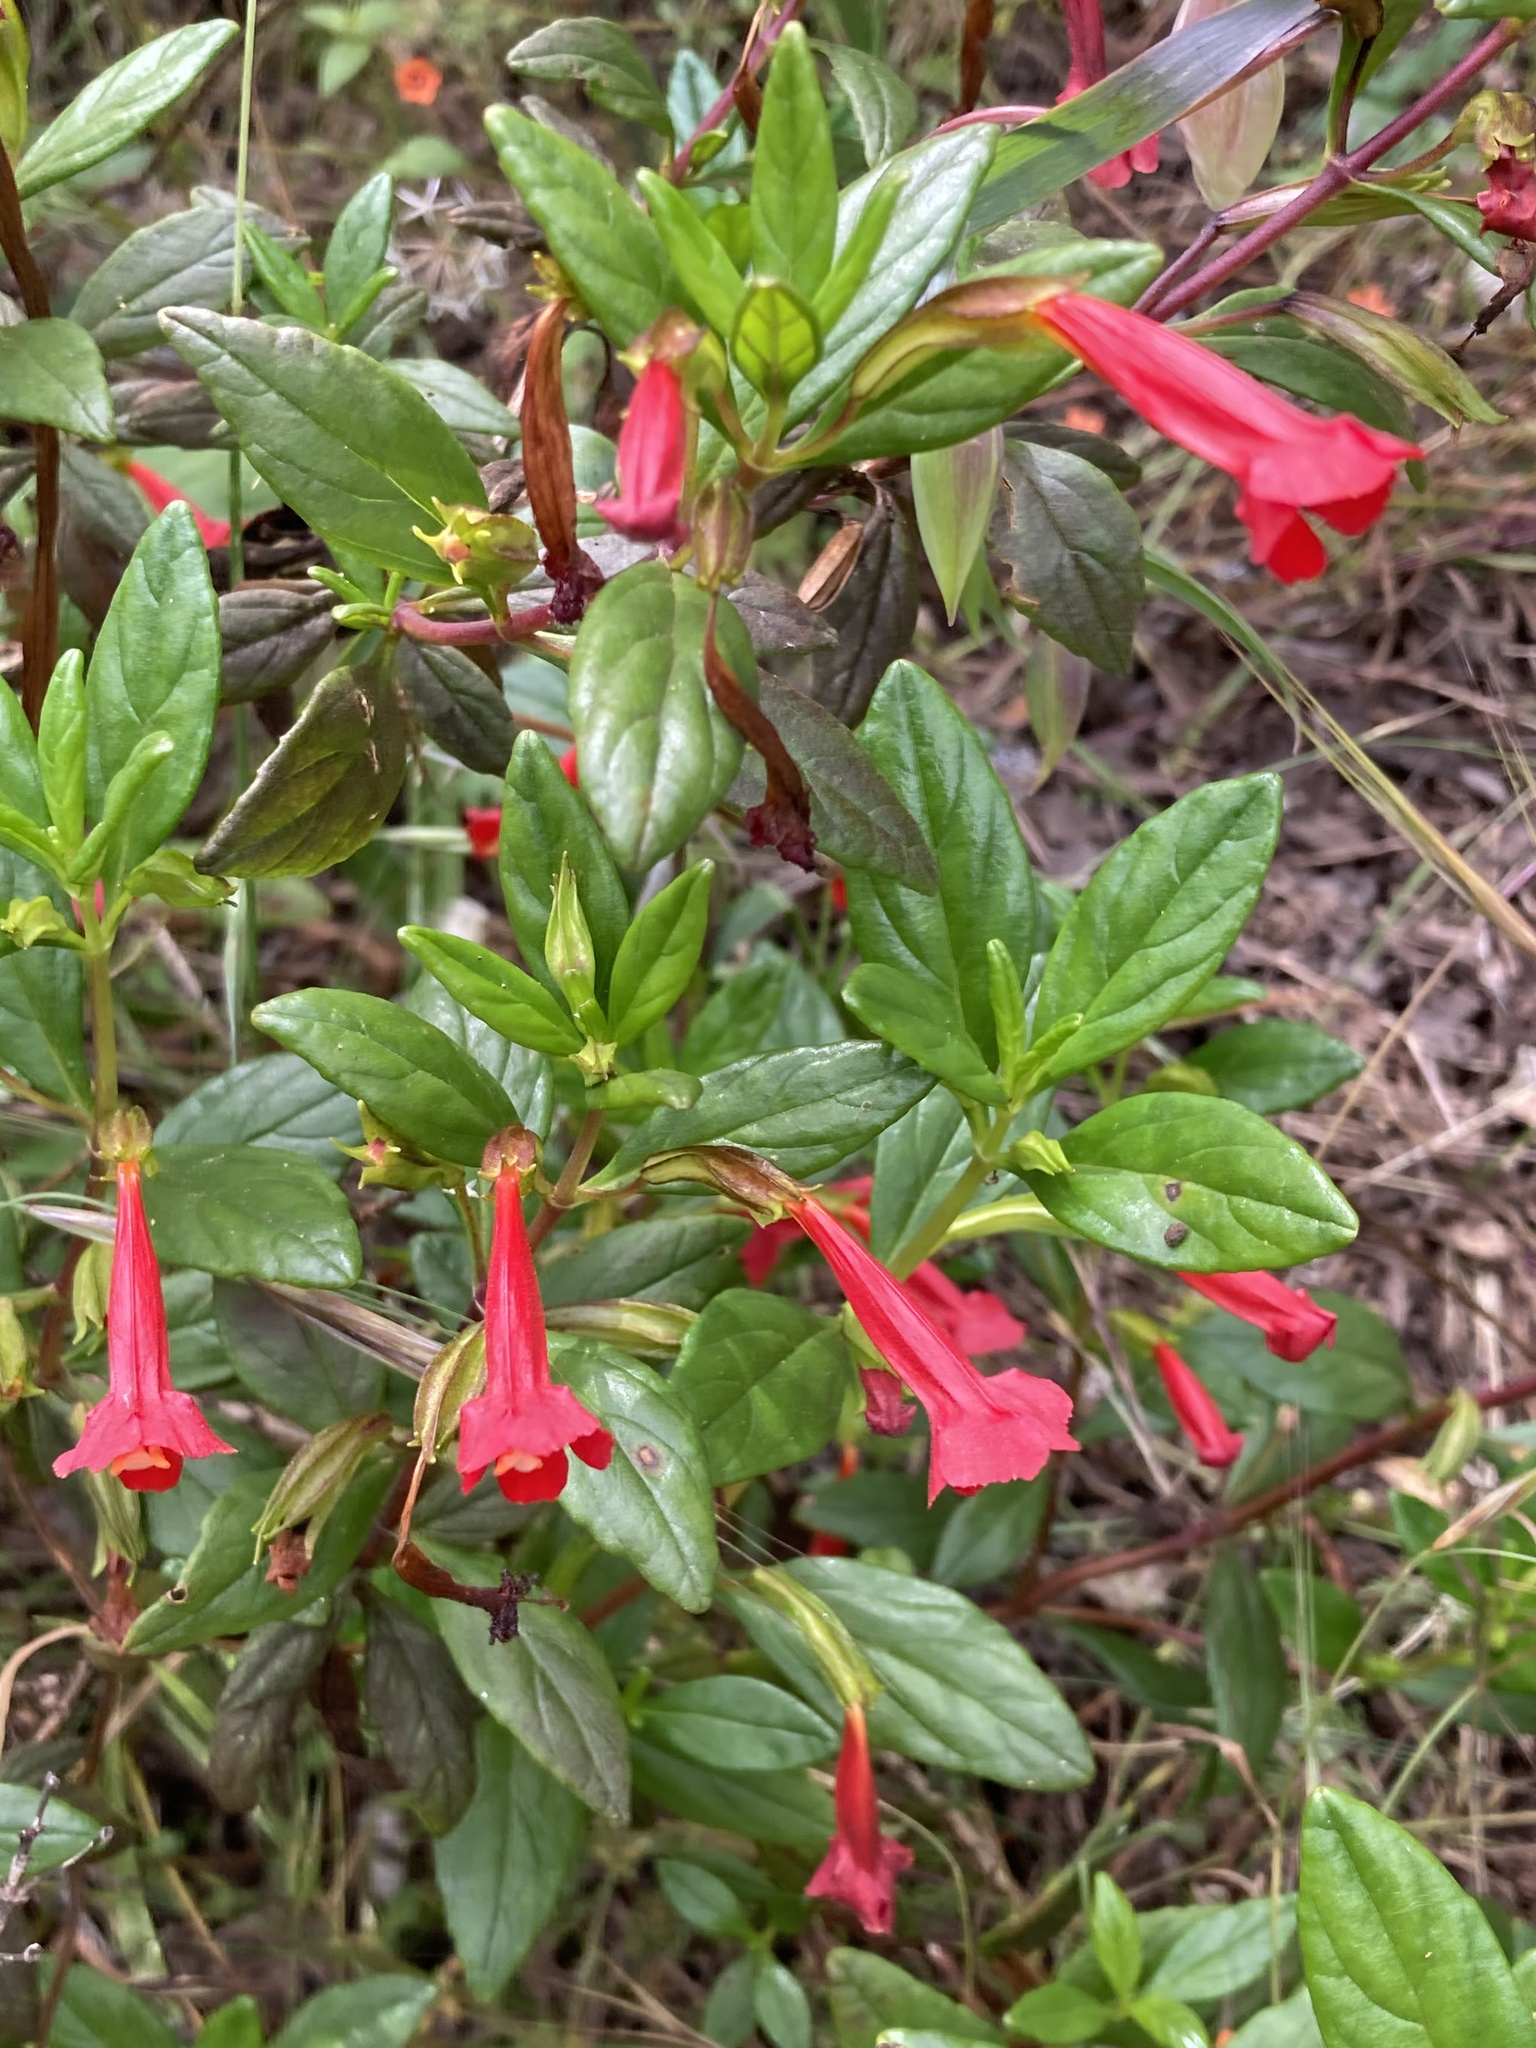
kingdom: Plantae
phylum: Tracheophyta
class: Magnoliopsida
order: Lamiales
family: Phrymaceae
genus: Diplacus
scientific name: Diplacus parviflorus
